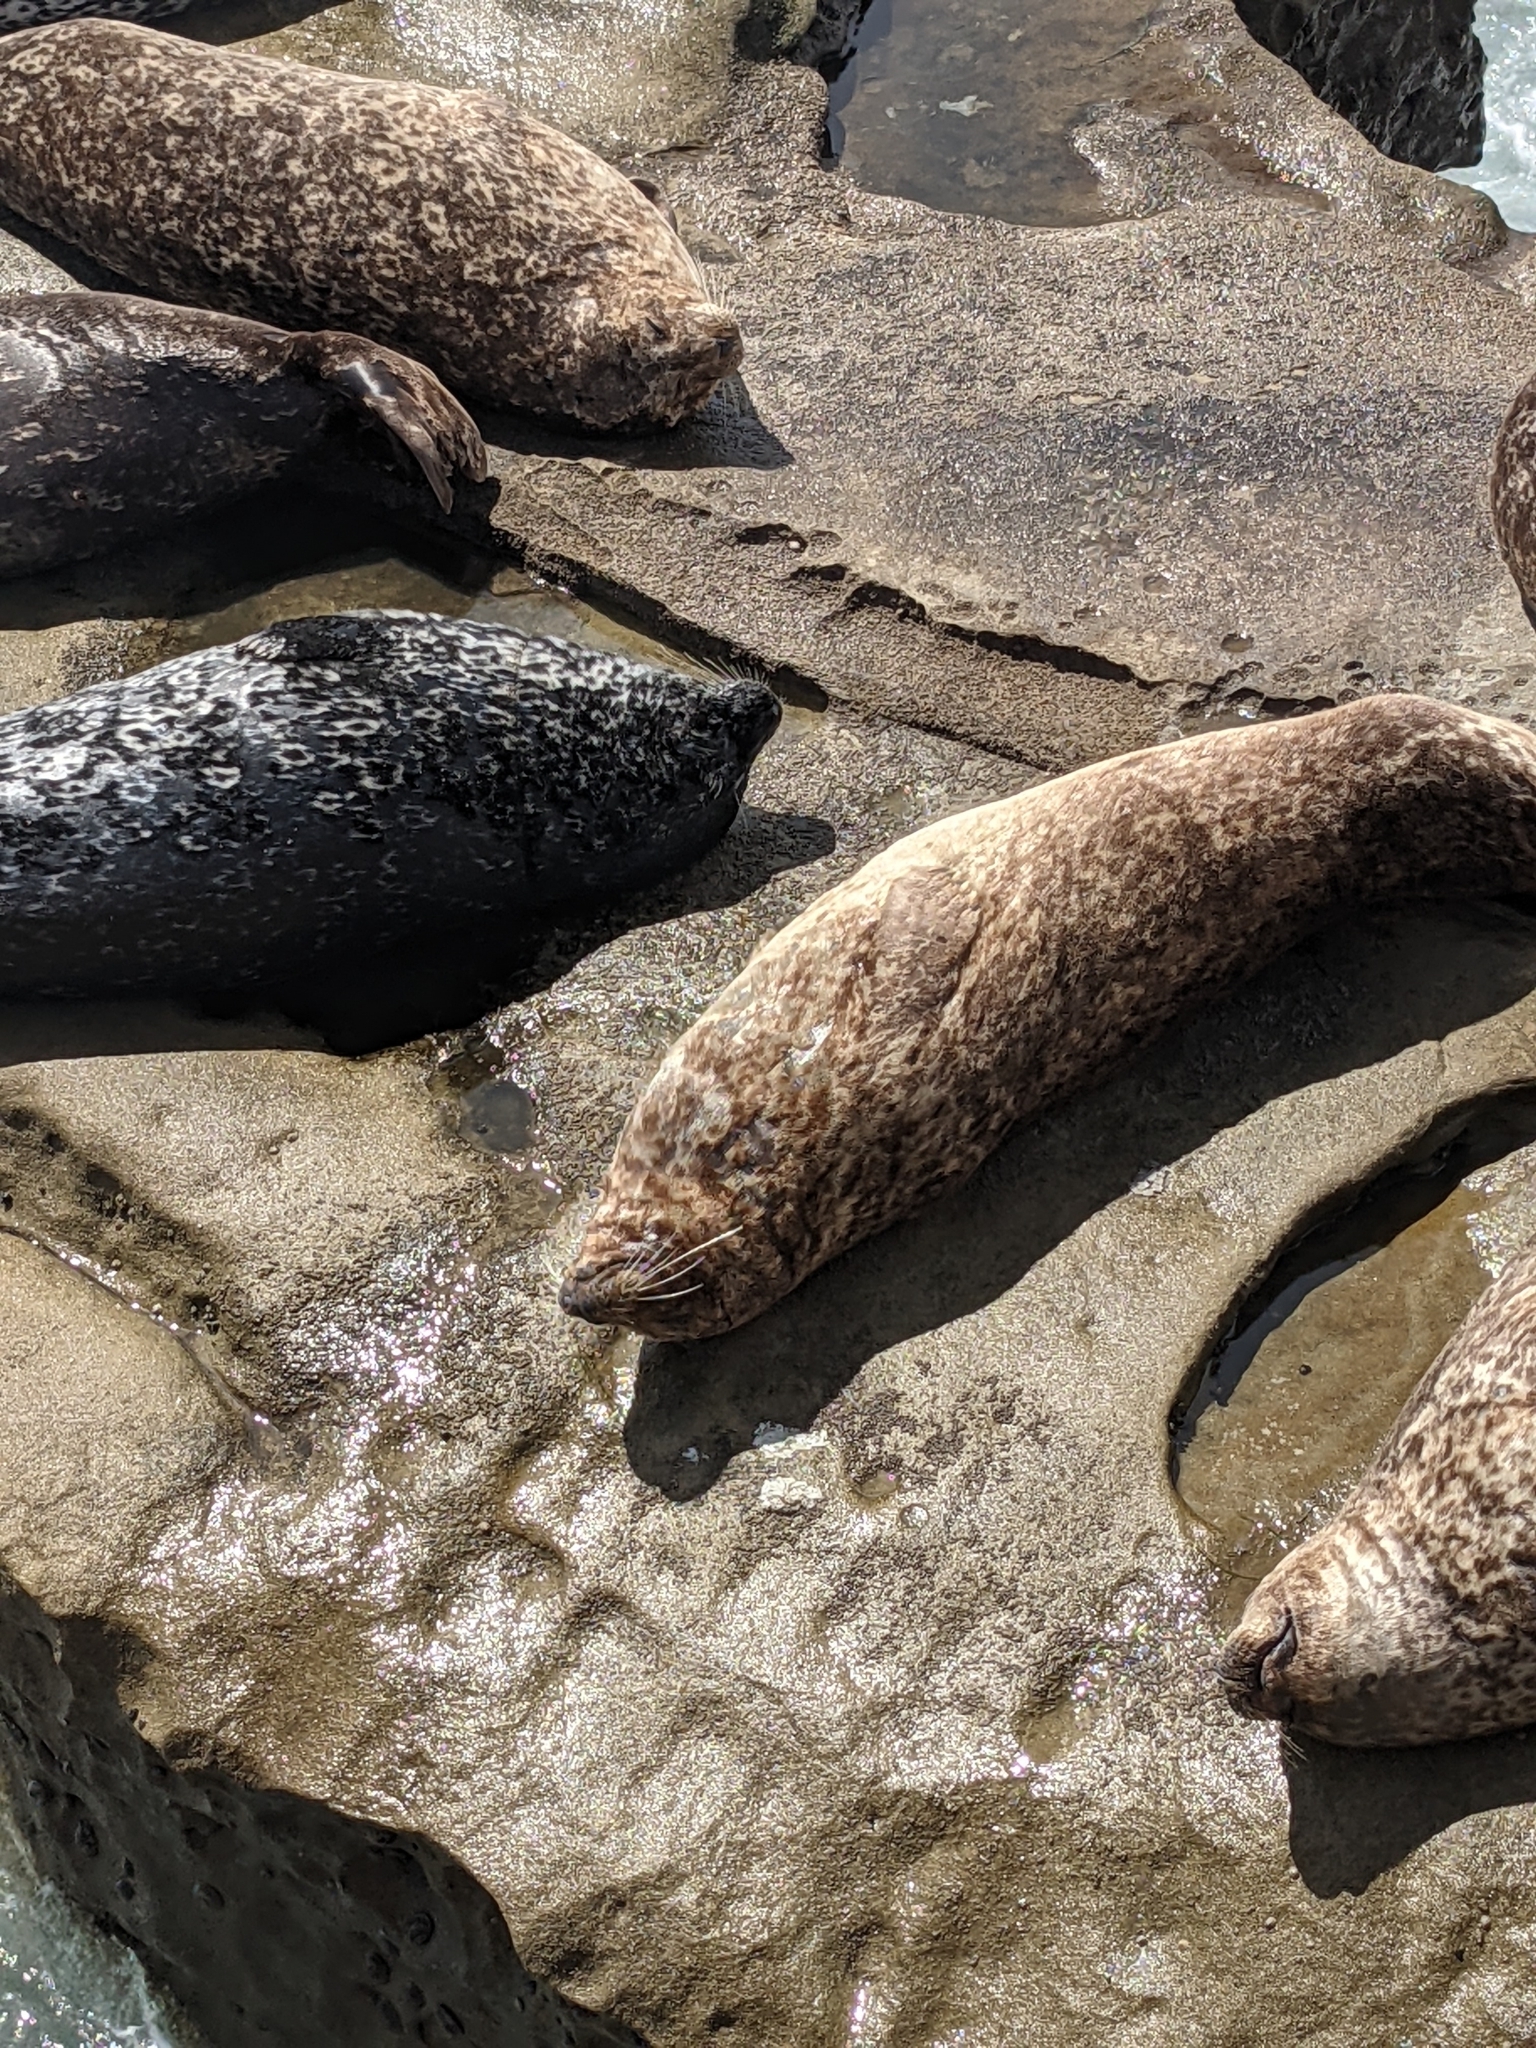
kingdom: Animalia
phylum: Chordata
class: Mammalia
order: Carnivora
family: Phocidae
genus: Phoca
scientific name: Phoca vitulina
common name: Harbor seal
